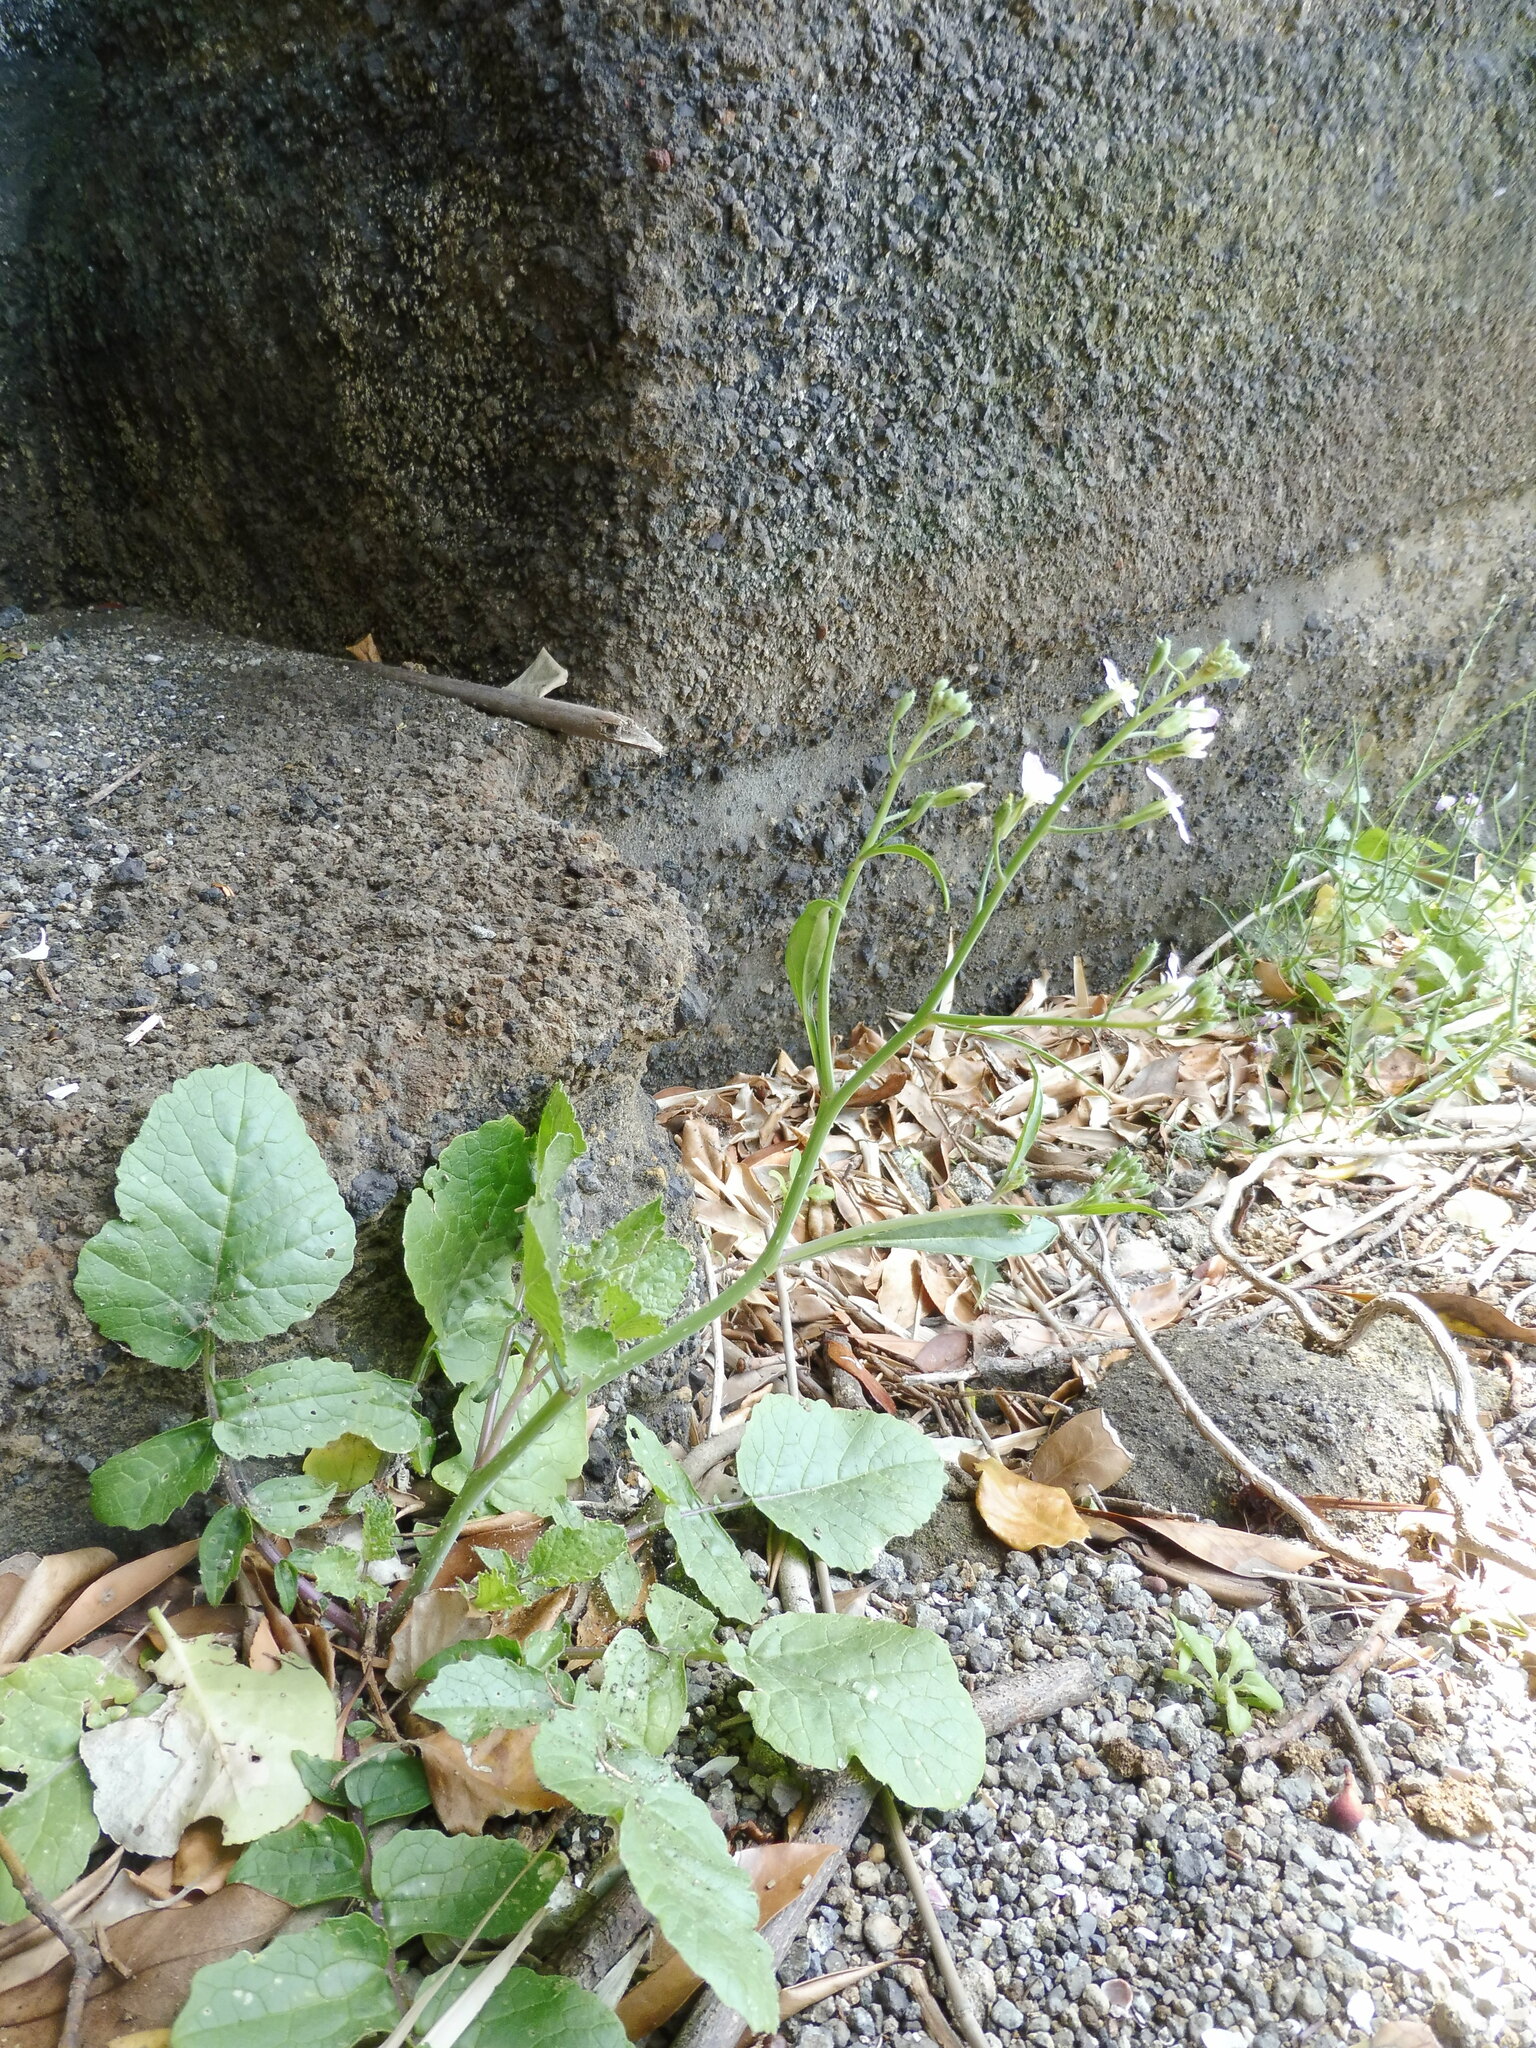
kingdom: Plantae
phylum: Tracheophyta
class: Magnoliopsida
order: Brassicales
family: Brassicaceae
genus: Raphanus
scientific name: Raphanus sativus
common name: Cultivated radish
